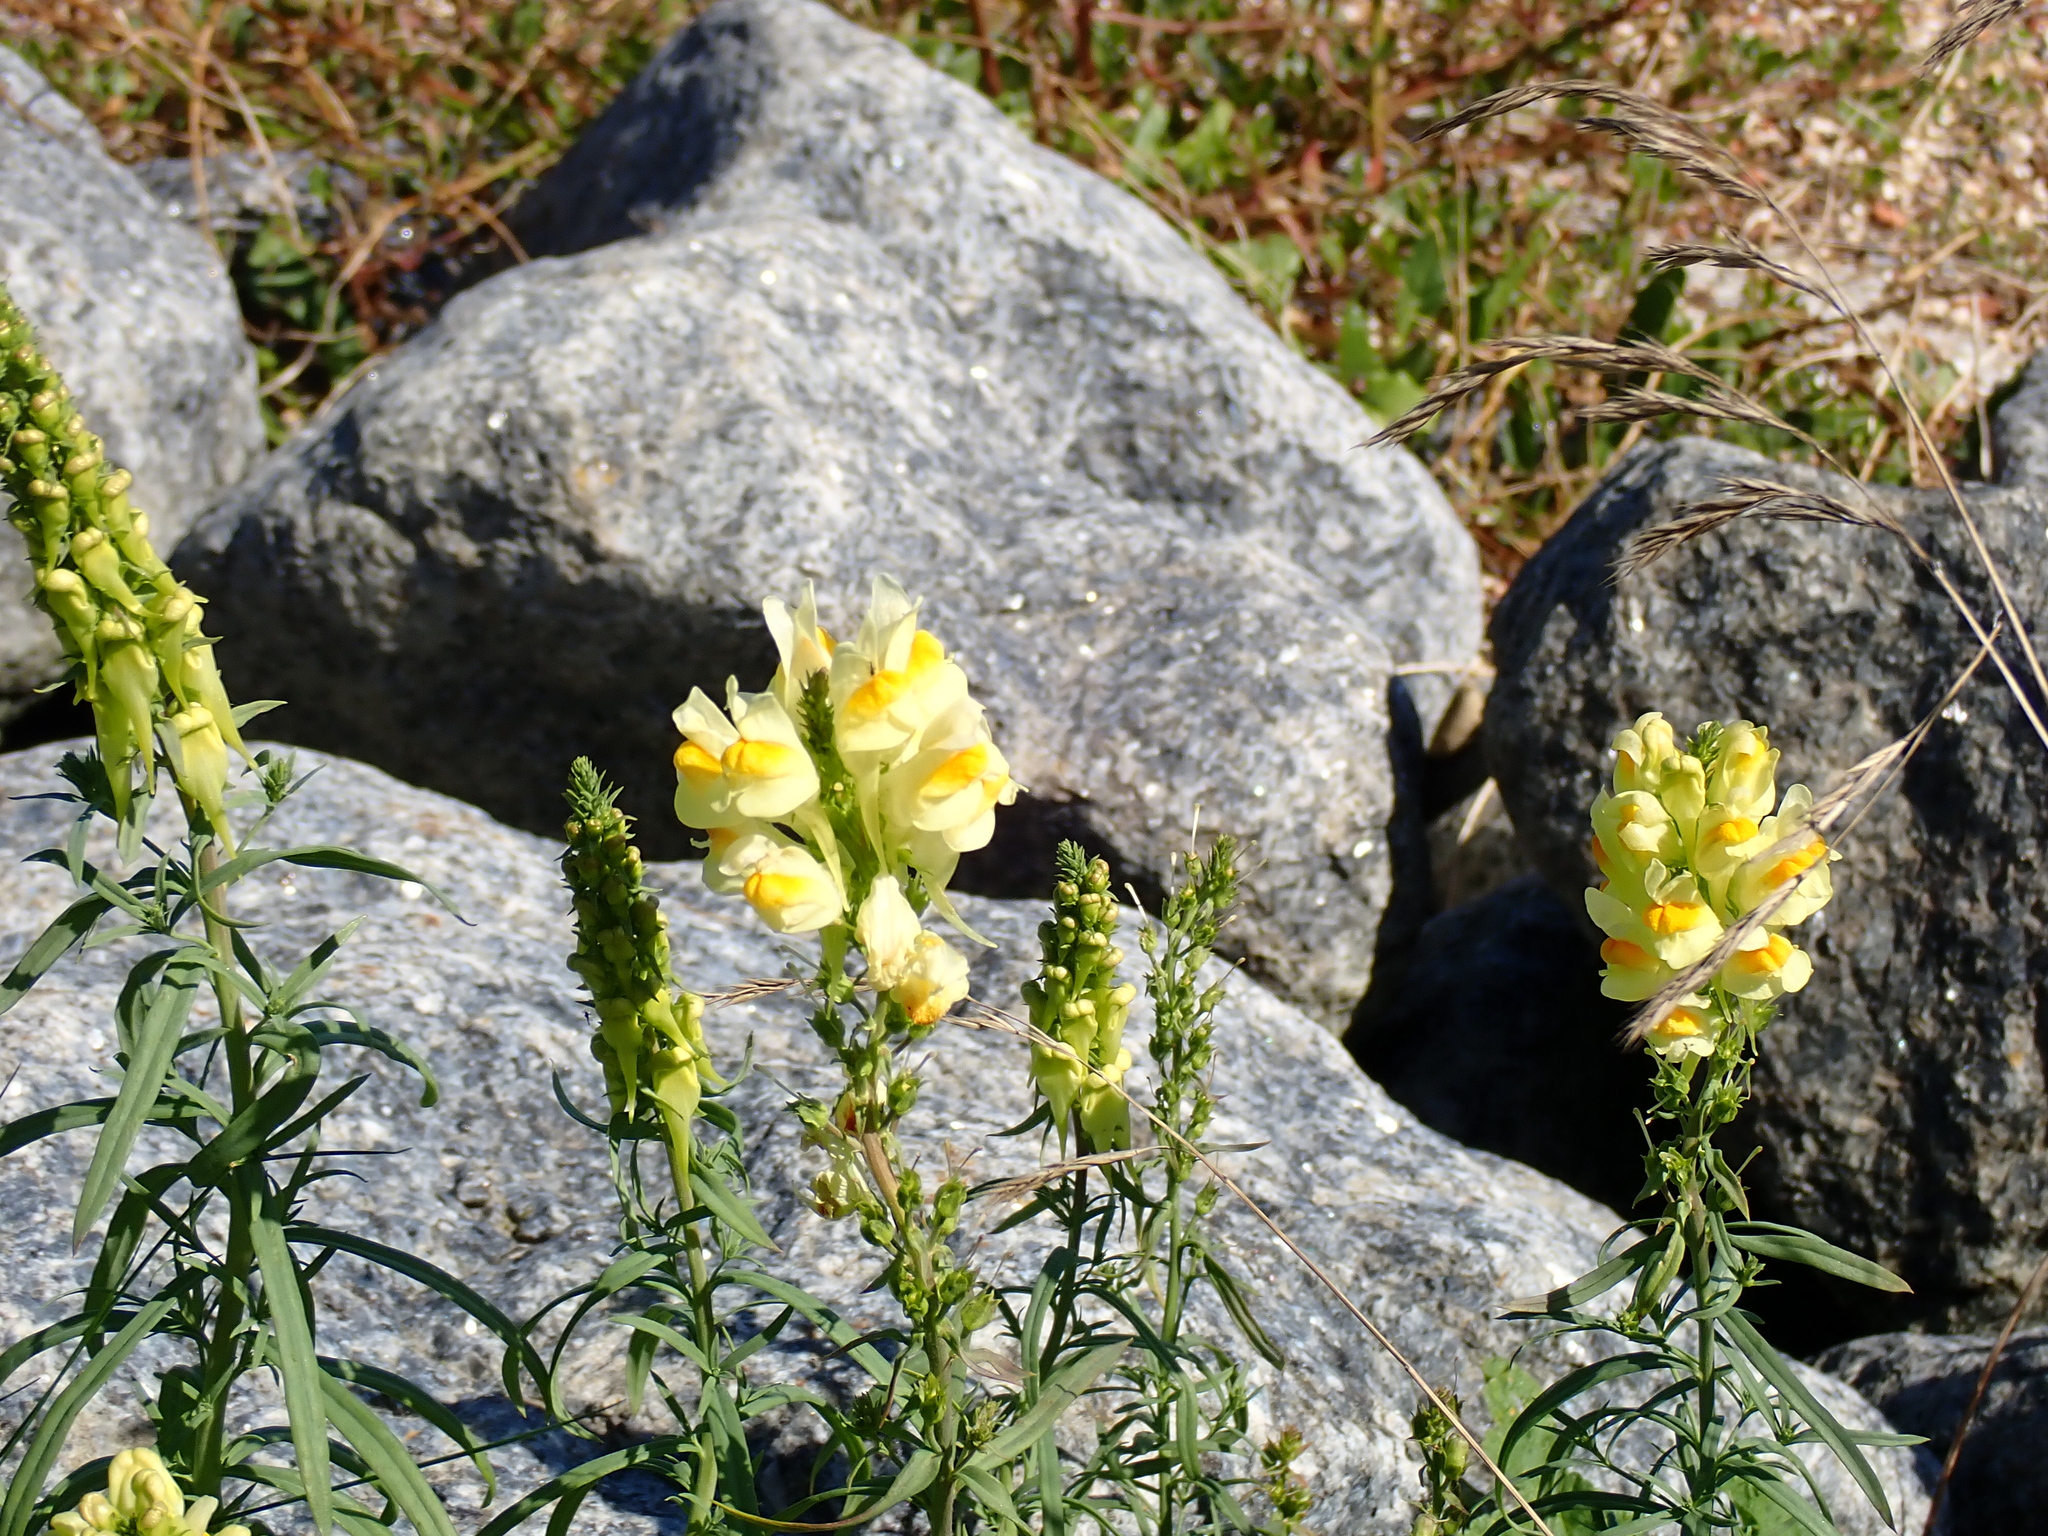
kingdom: Plantae
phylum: Tracheophyta
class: Magnoliopsida
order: Lamiales
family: Plantaginaceae
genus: Linaria
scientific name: Linaria vulgaris
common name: Butter and eggs
